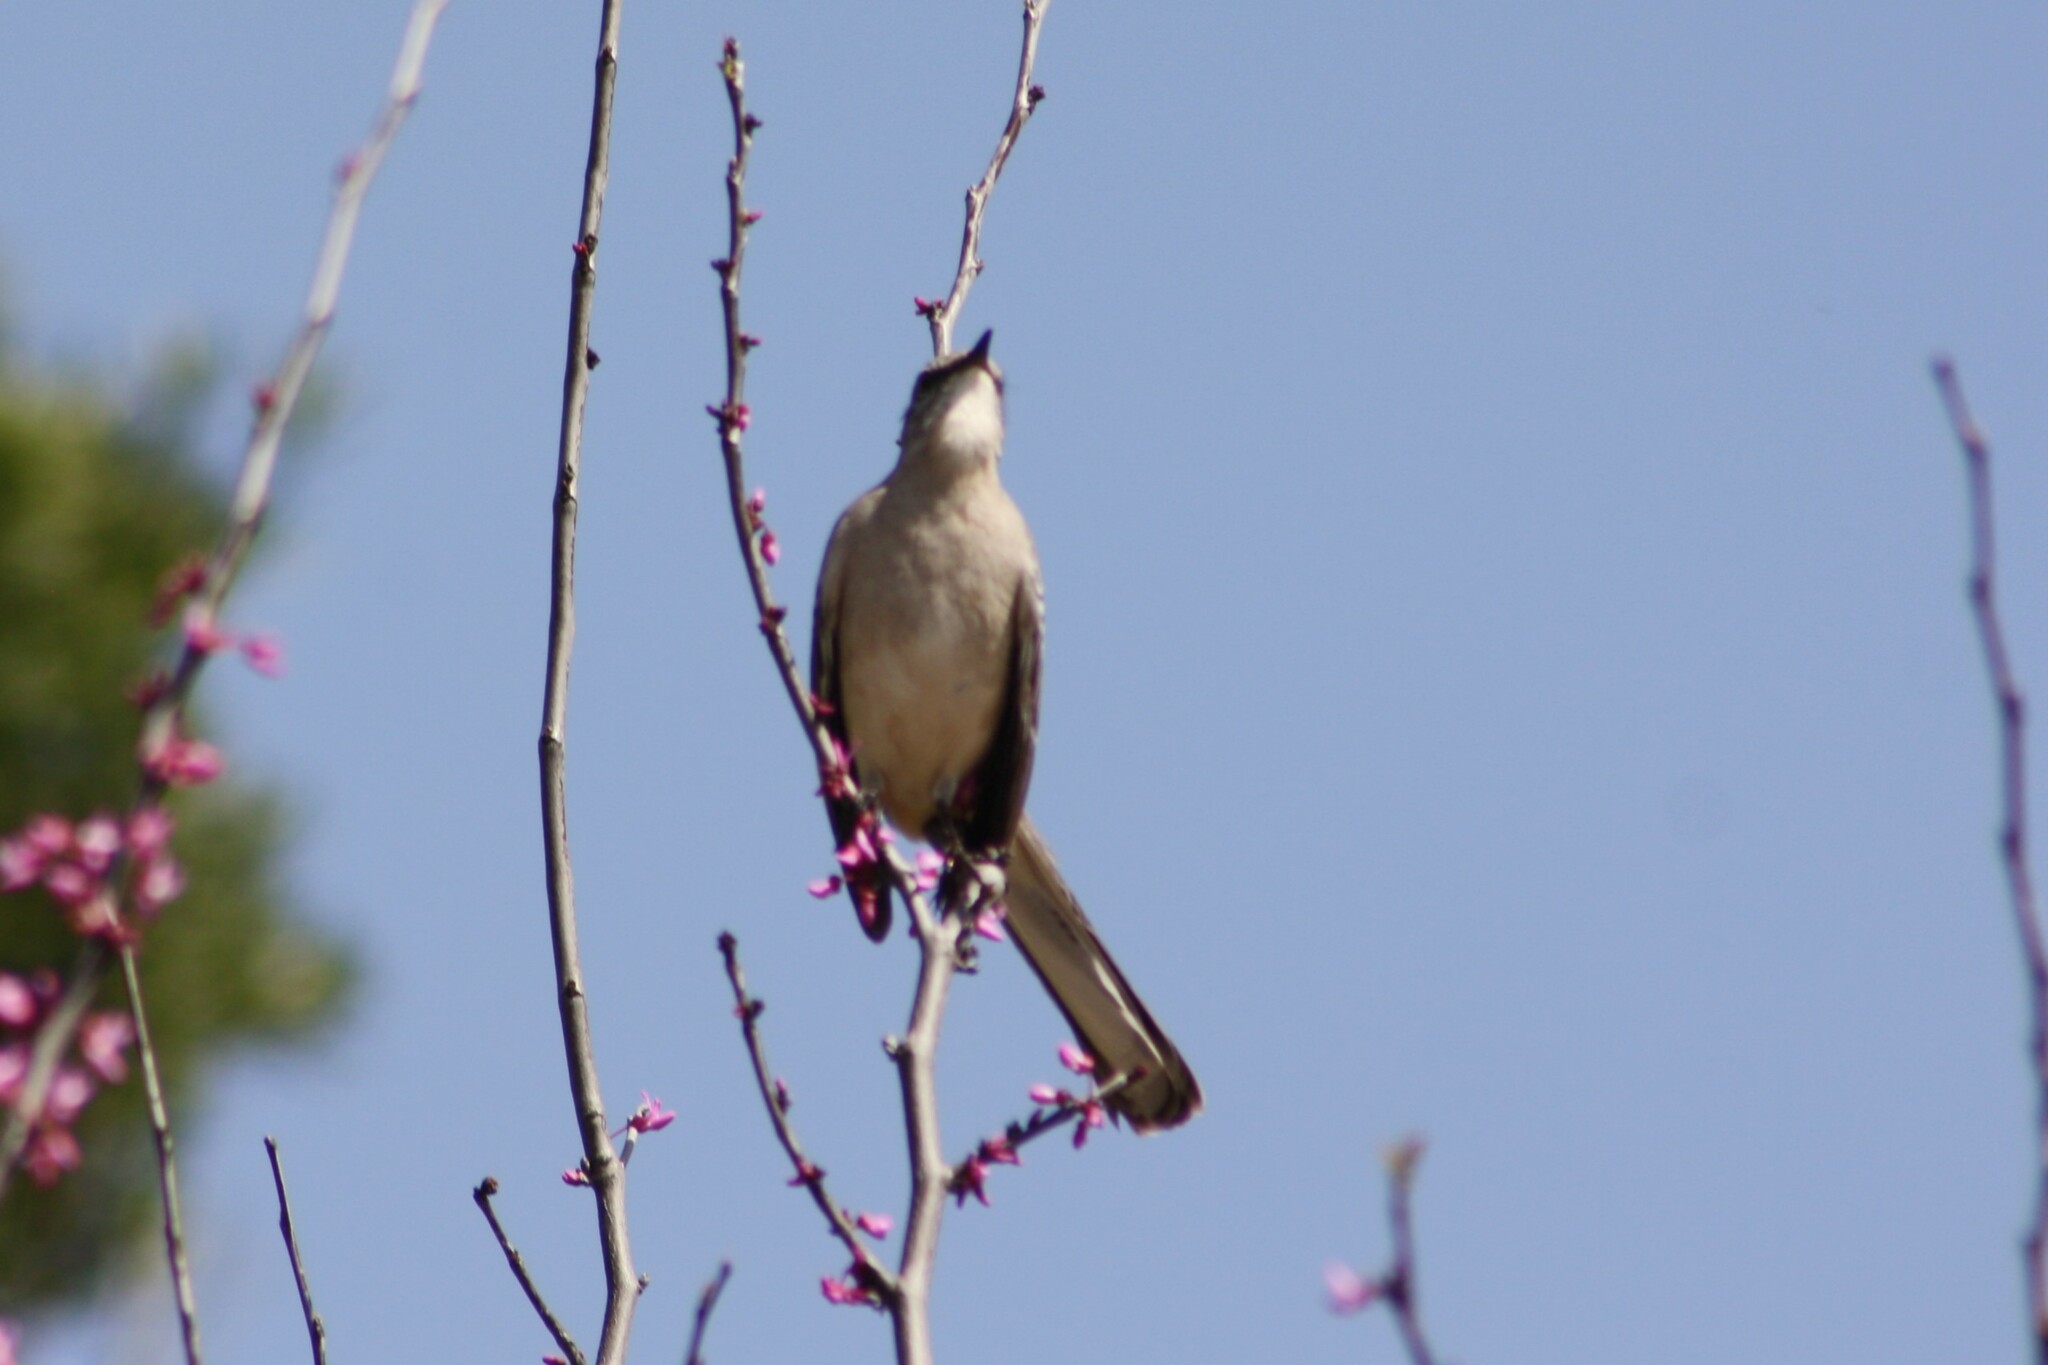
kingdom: Animalia
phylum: Chordata
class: Aves
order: Passeriformes
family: Mimidae
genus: Mimus
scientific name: Mimus polyglottos
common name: Northern mockingbird
